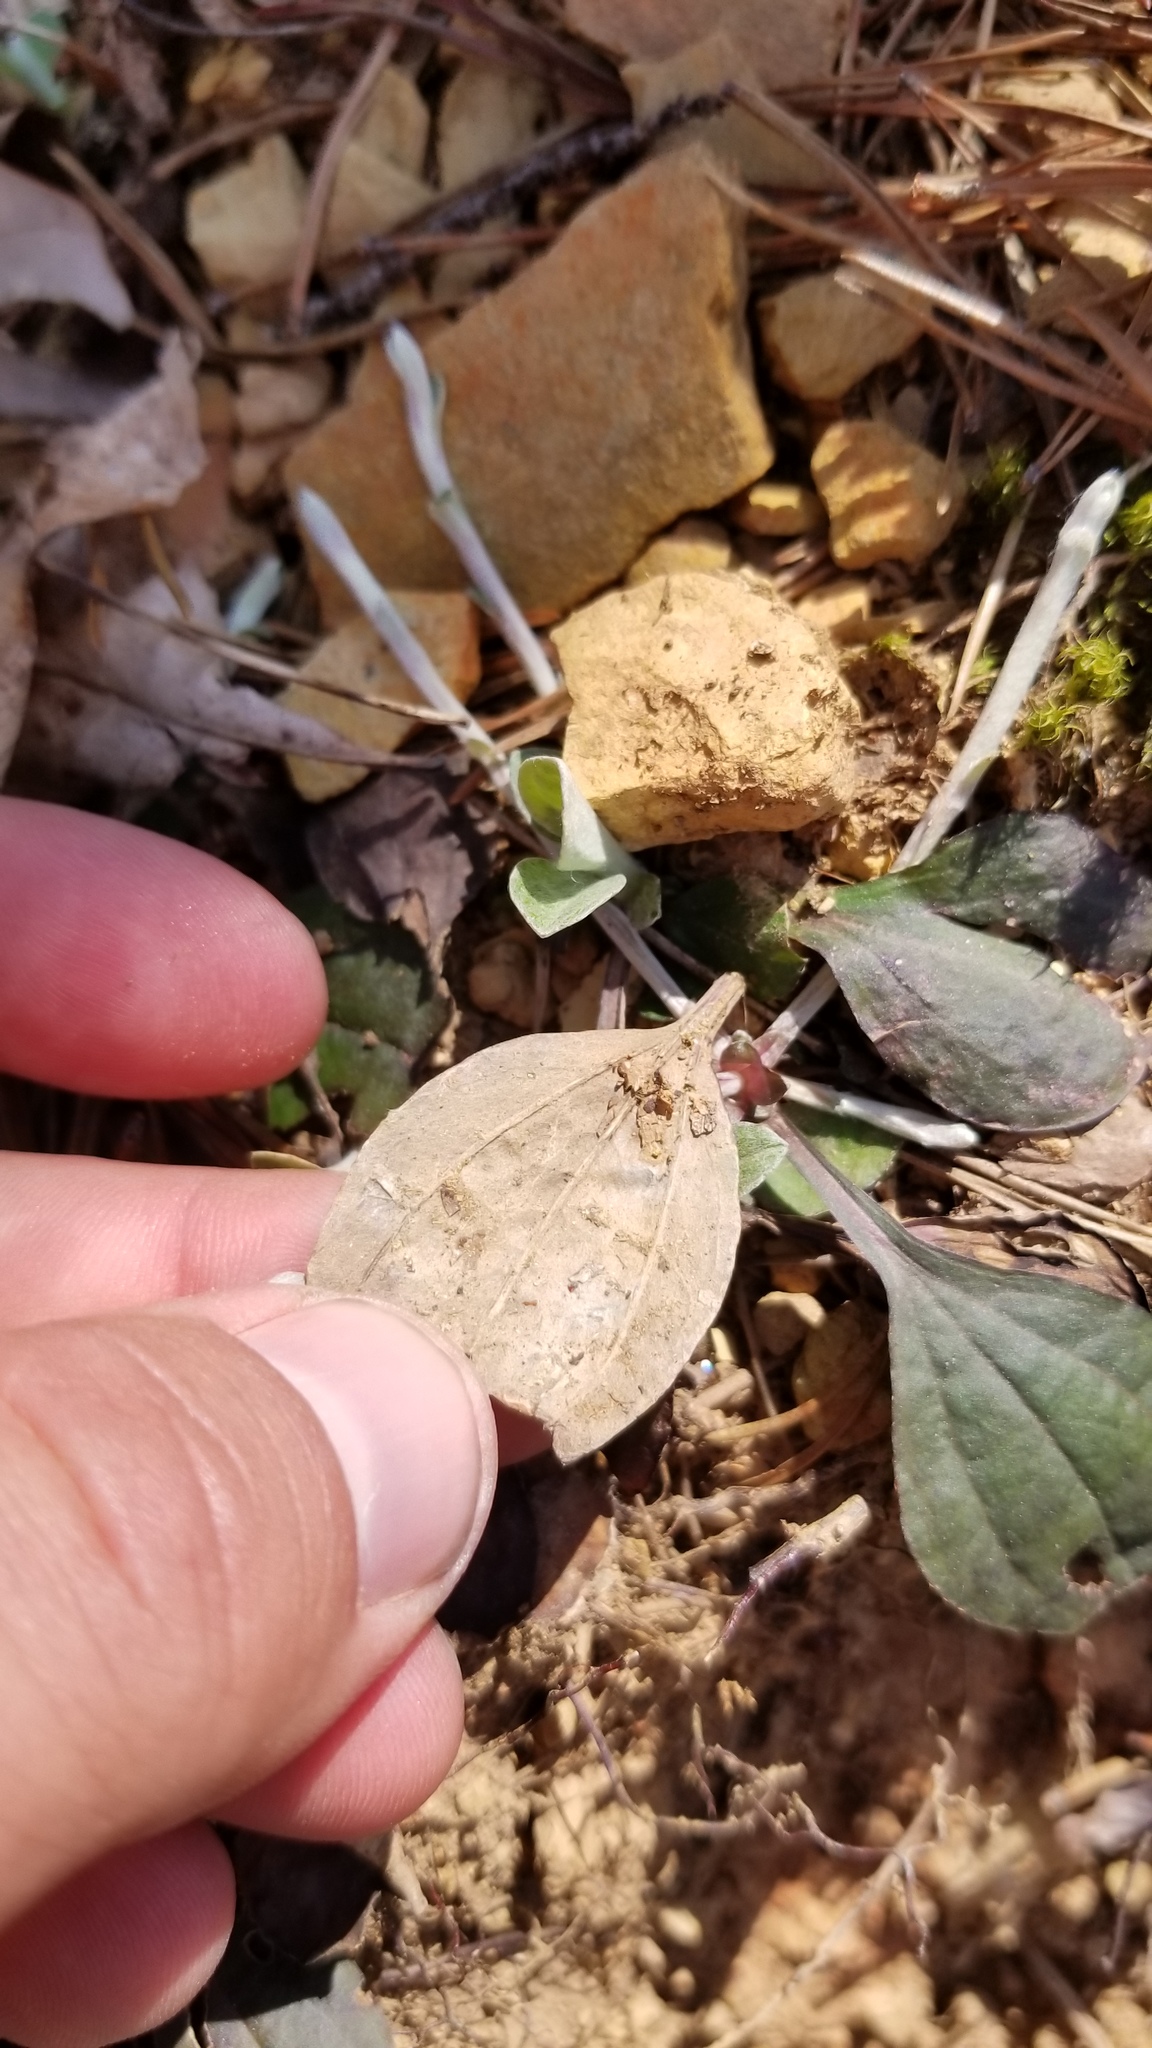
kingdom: Plantae
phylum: Tracheophyta
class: Magnoliopsida
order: Asterales
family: Asteraceae
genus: Antennaria
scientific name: Antennaria solitaria
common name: Single-head pussytoes
